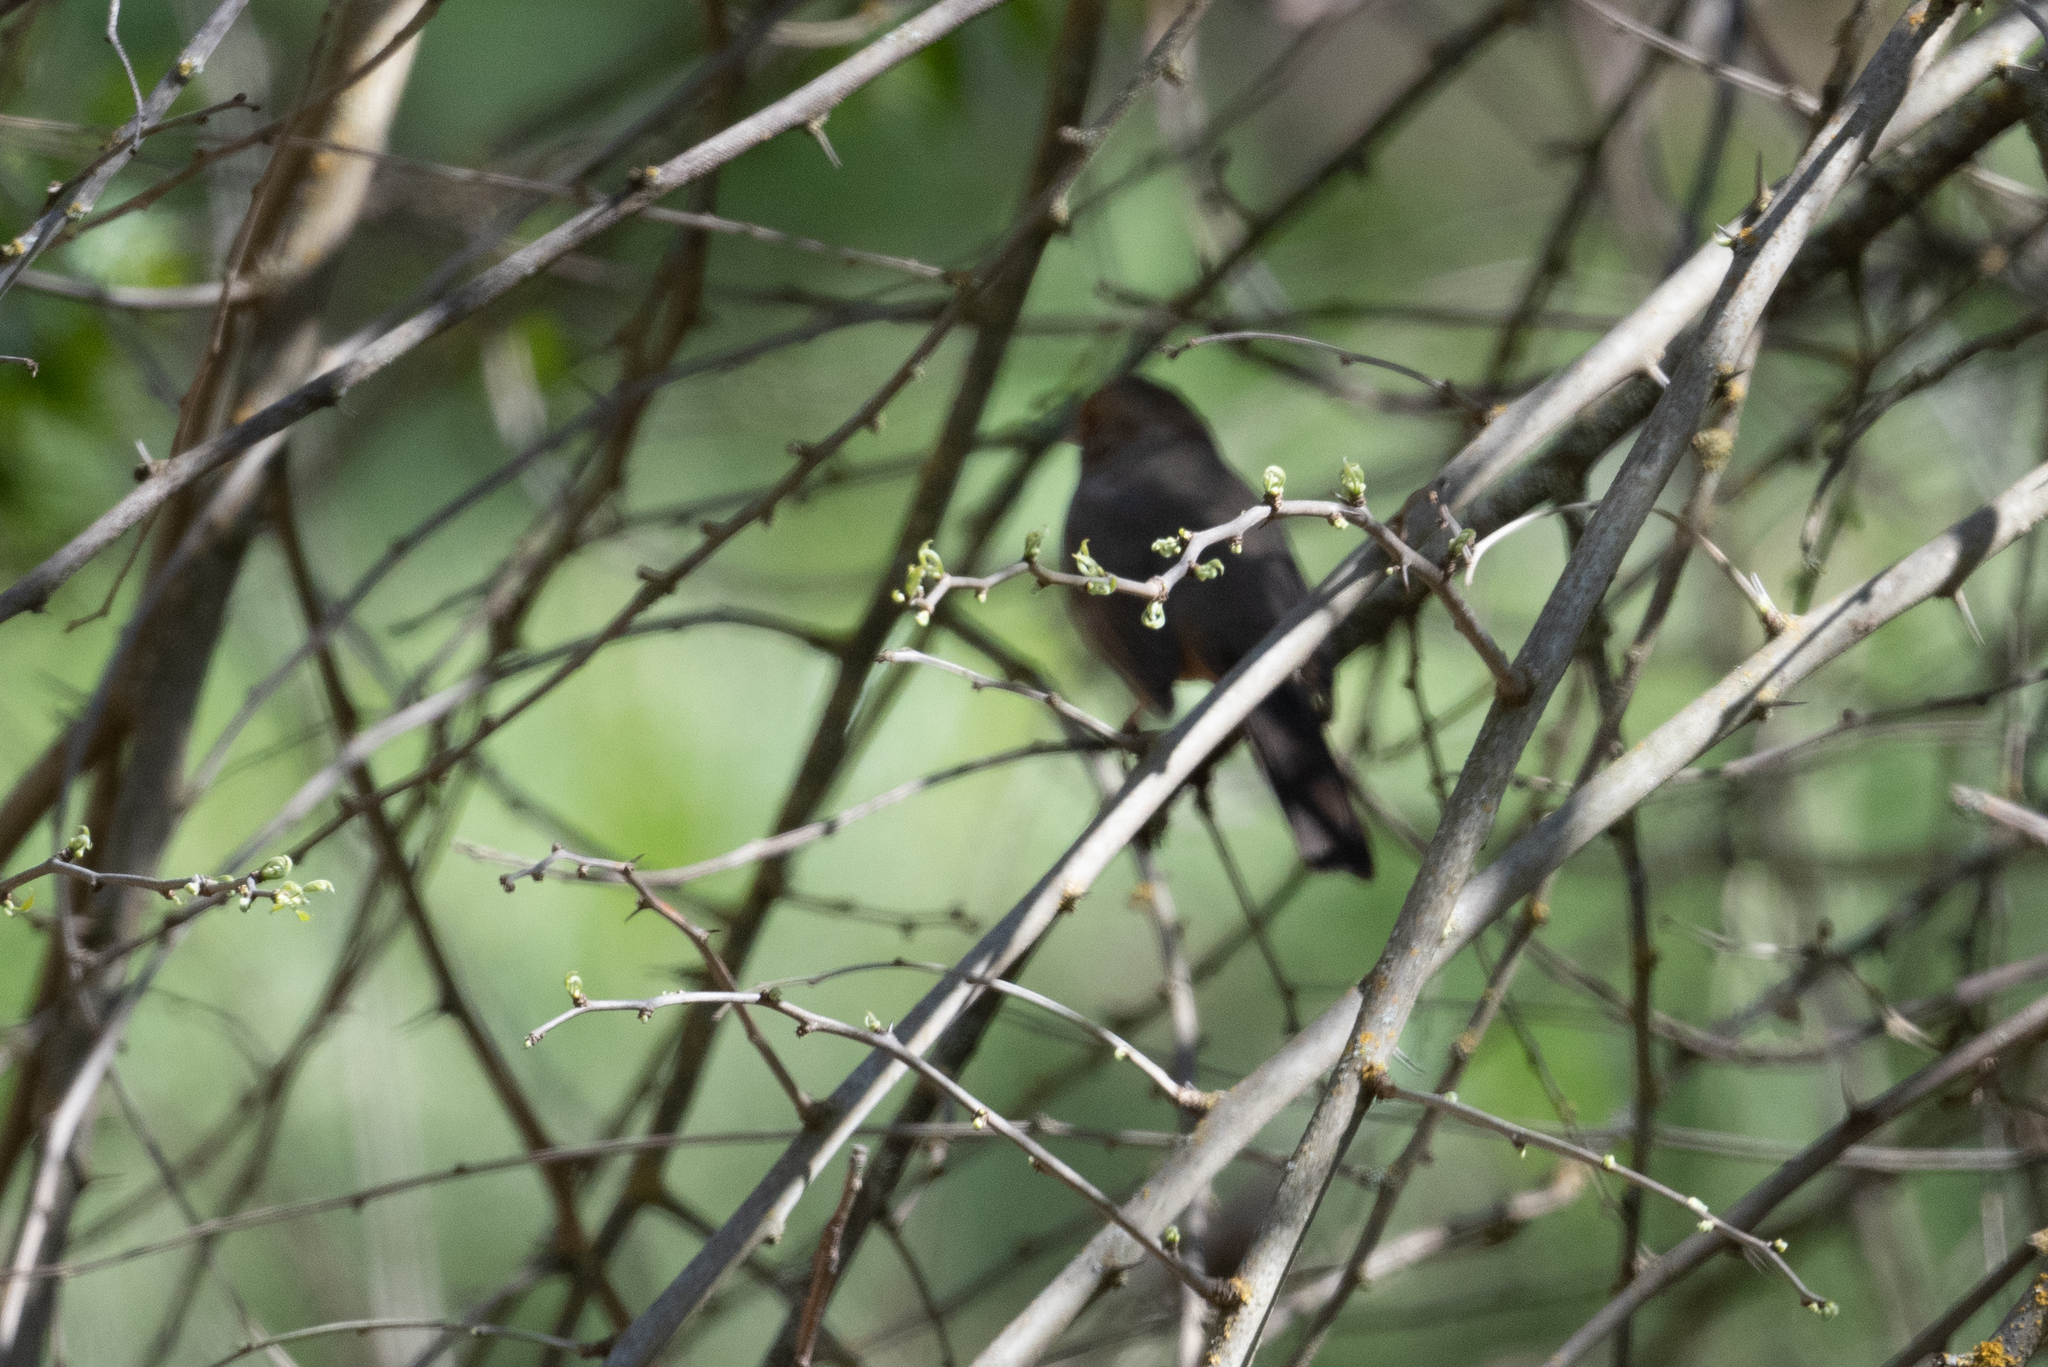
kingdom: Animalia
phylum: Chordata
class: Aves
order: Passeriformes
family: Passerellidae
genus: Melozone
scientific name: Melozone crissalis
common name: California towhee
